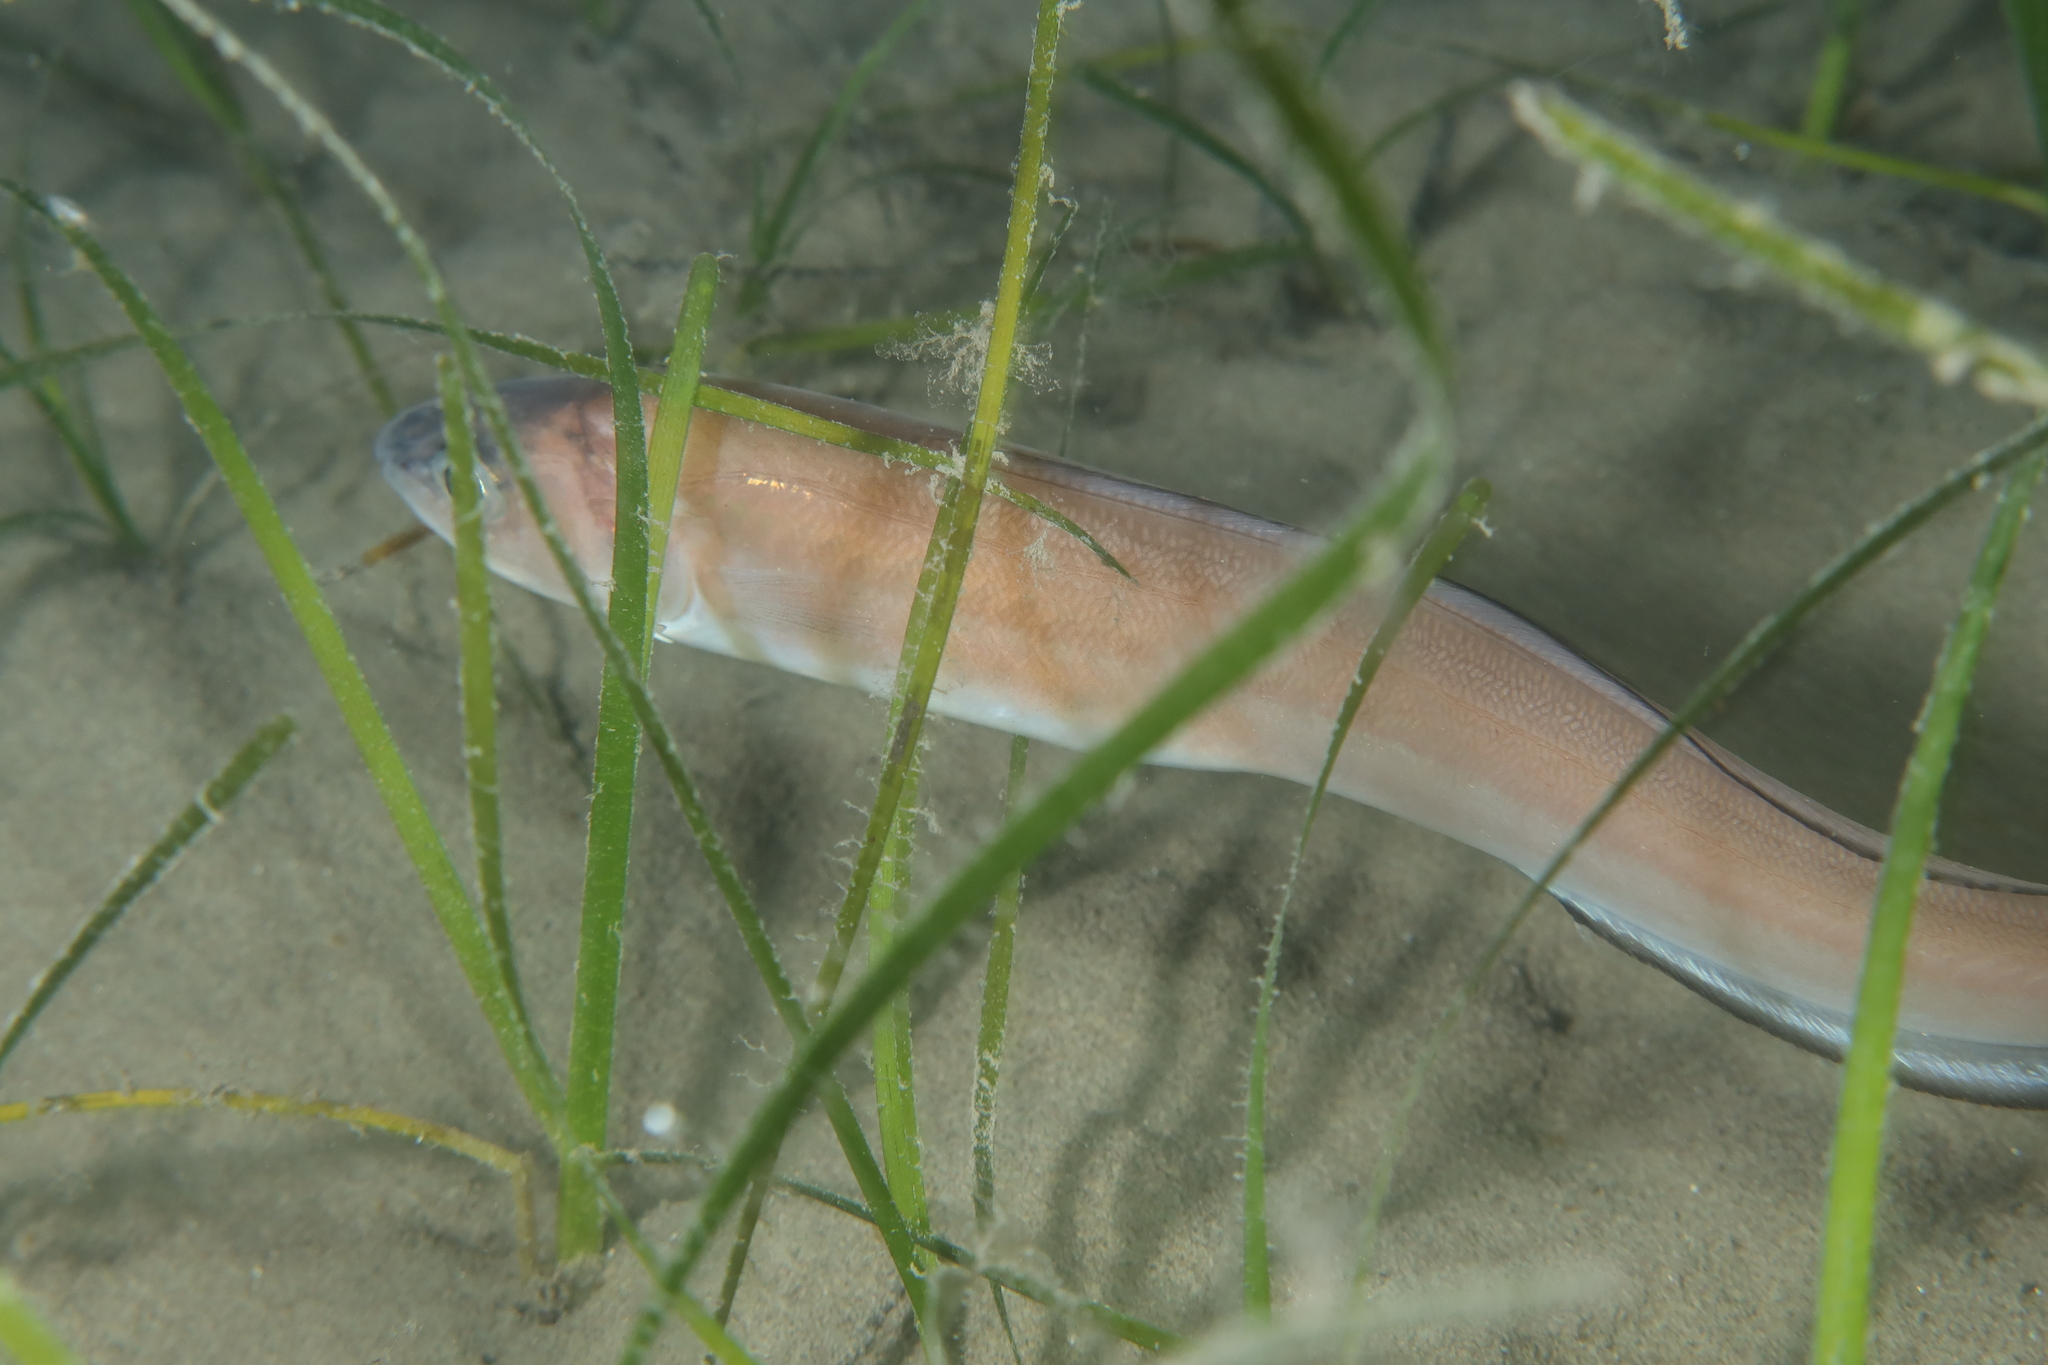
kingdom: Animalia
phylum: Chordata
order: Ophidiiformes
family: Ophidiidae
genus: Ophidion
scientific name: Ophidion rochei
